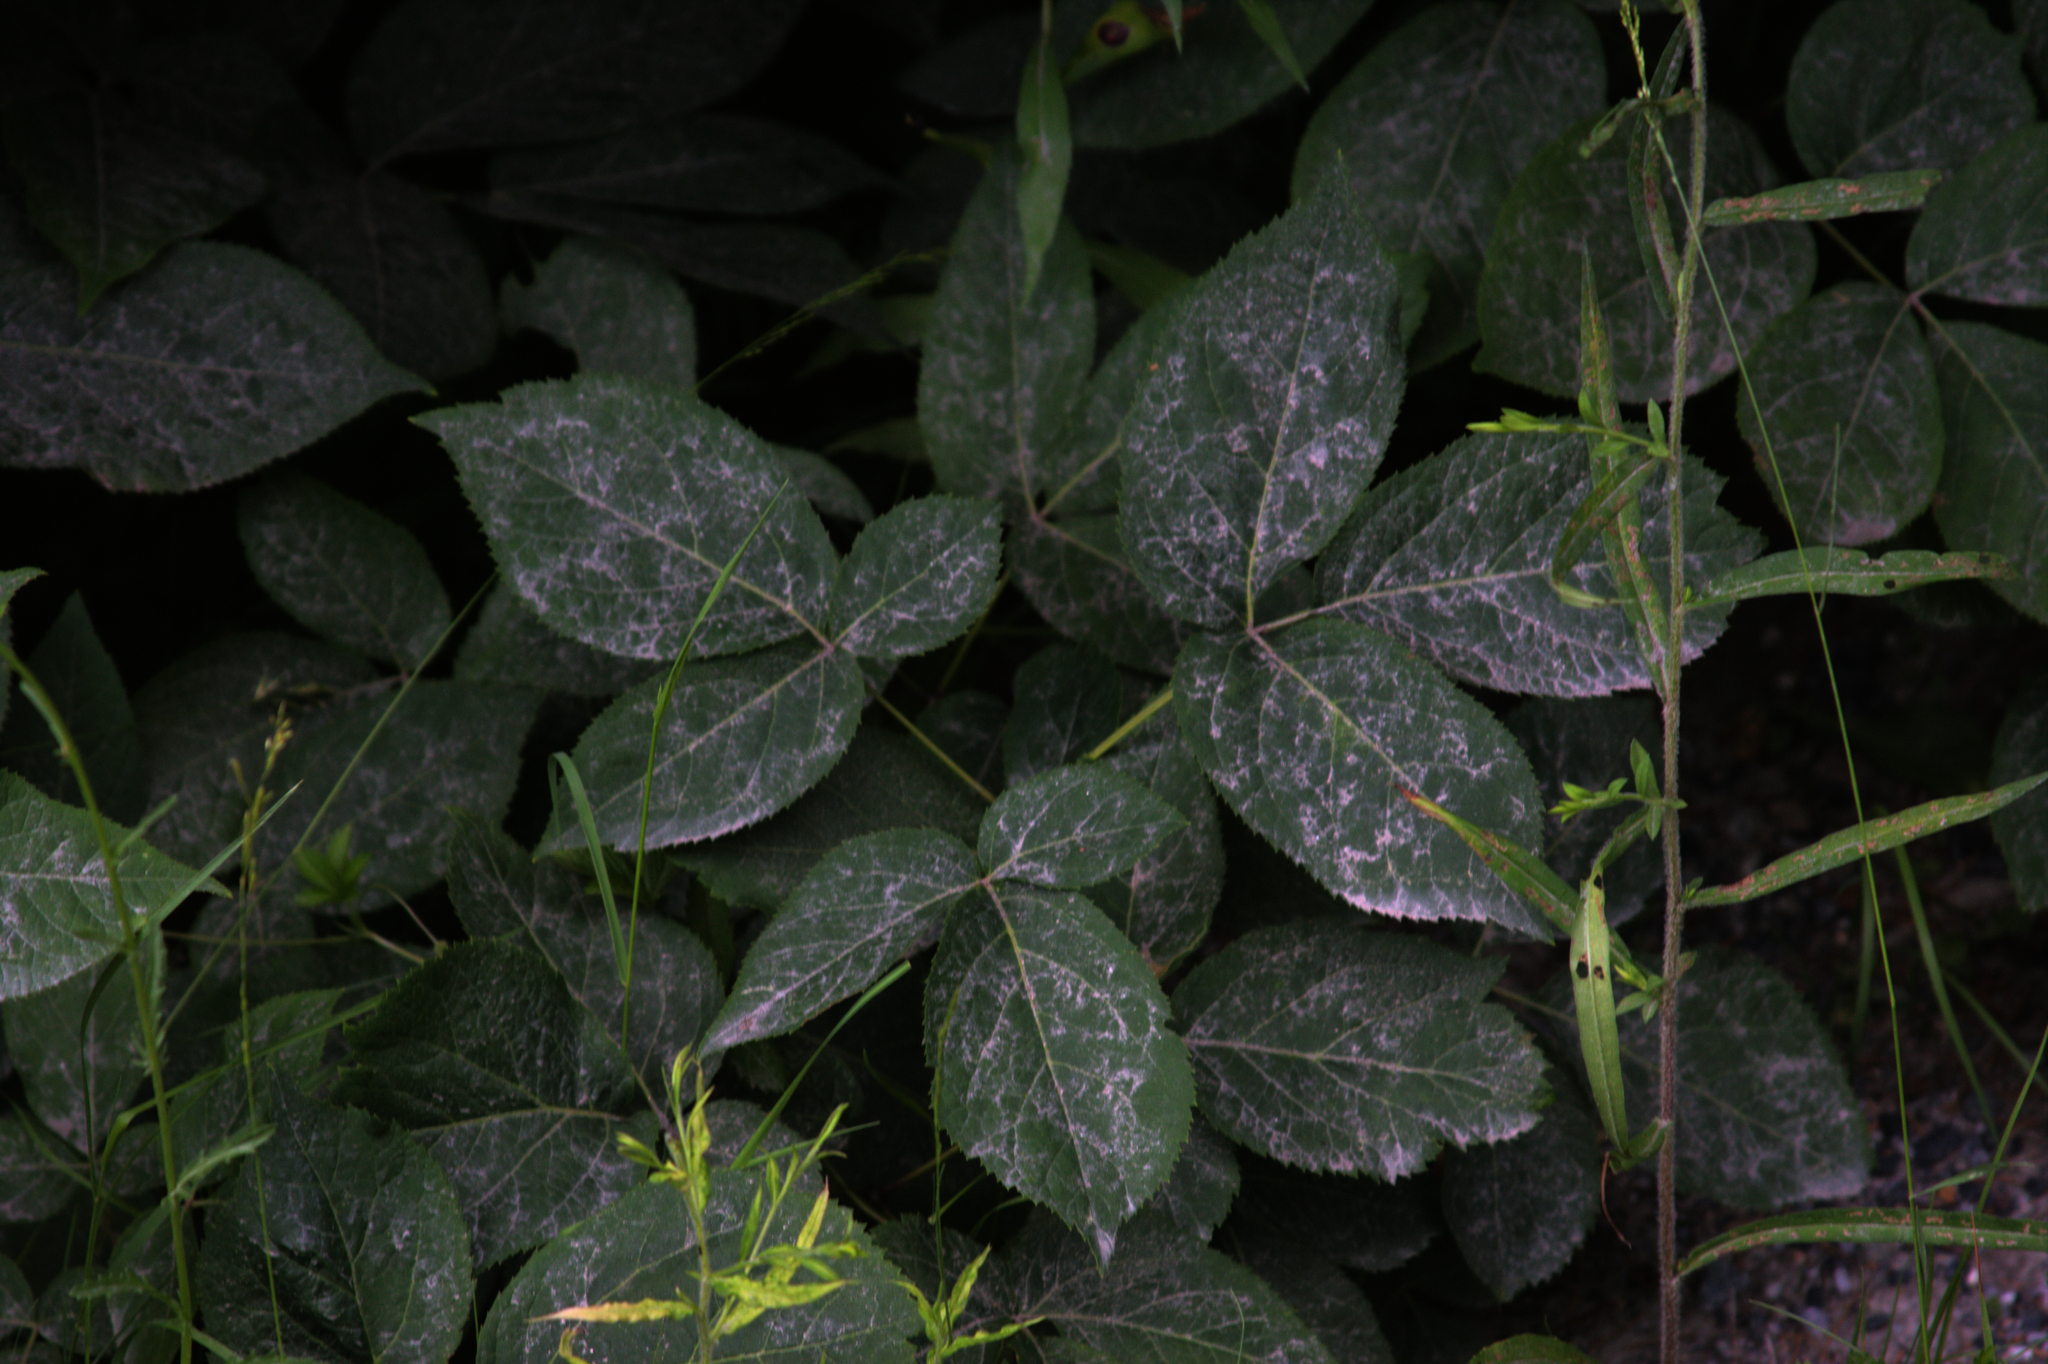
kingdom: Plantae
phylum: Tracheophyta
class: Magnoliopsida
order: Apiales
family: Araliaceae
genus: Aralia
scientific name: Aralia nudicaulis
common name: Wild sarsaparilla
